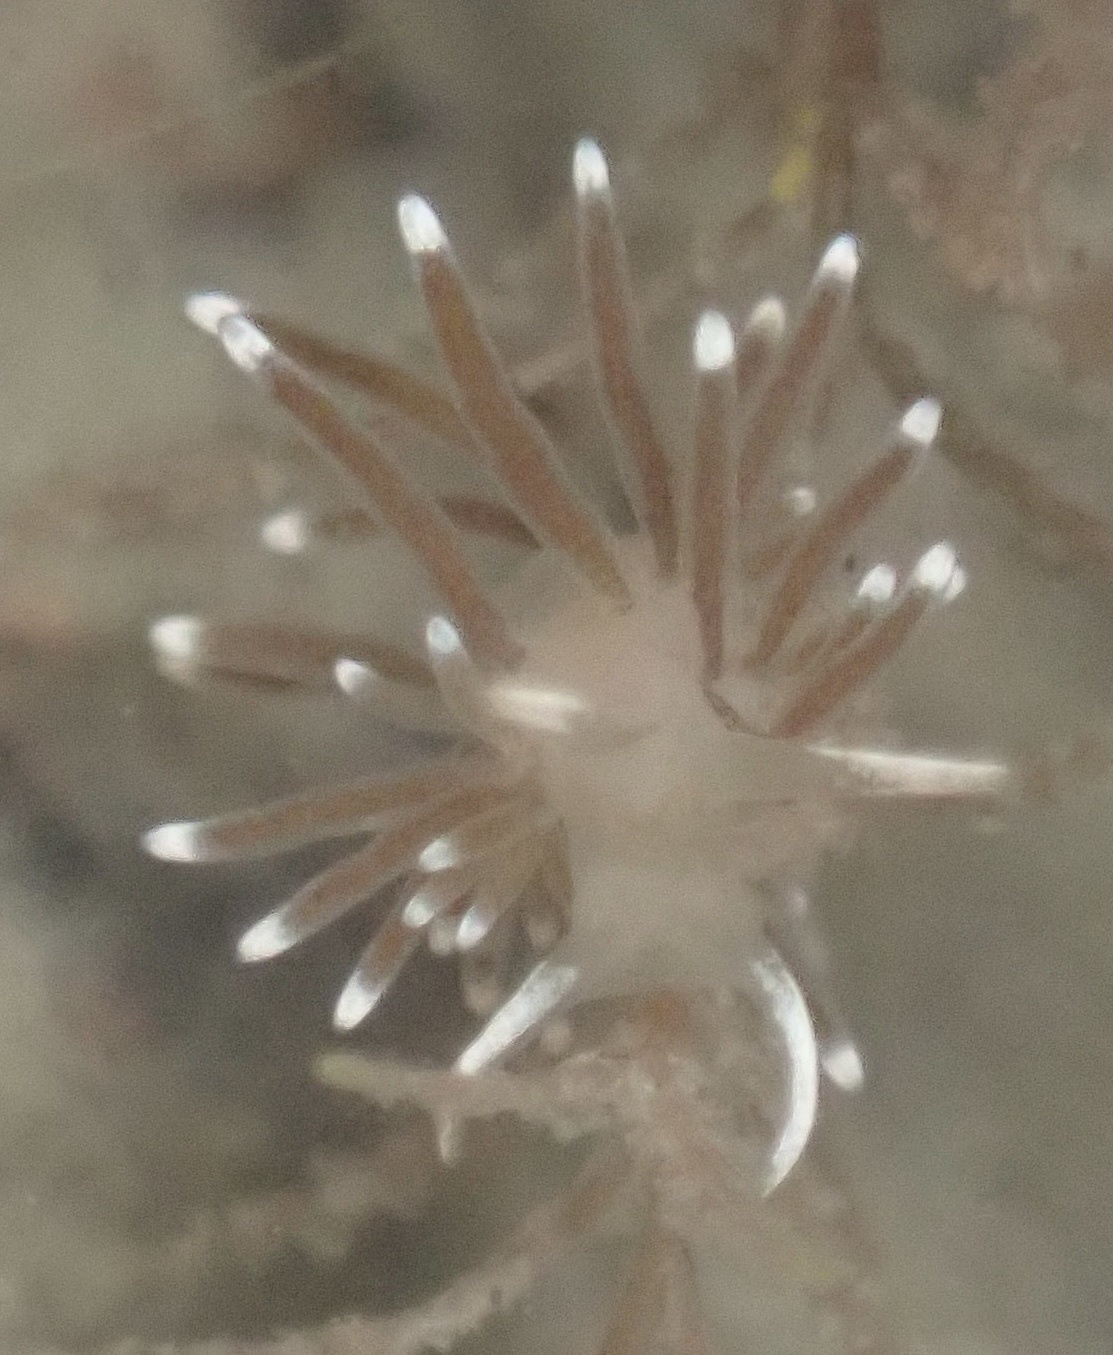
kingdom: Animalia
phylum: Mollusca
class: Gastropoda
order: Nudibranchia
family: Cuthonellidae
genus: Cuthonella
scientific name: Cuthonella cocoachroma
